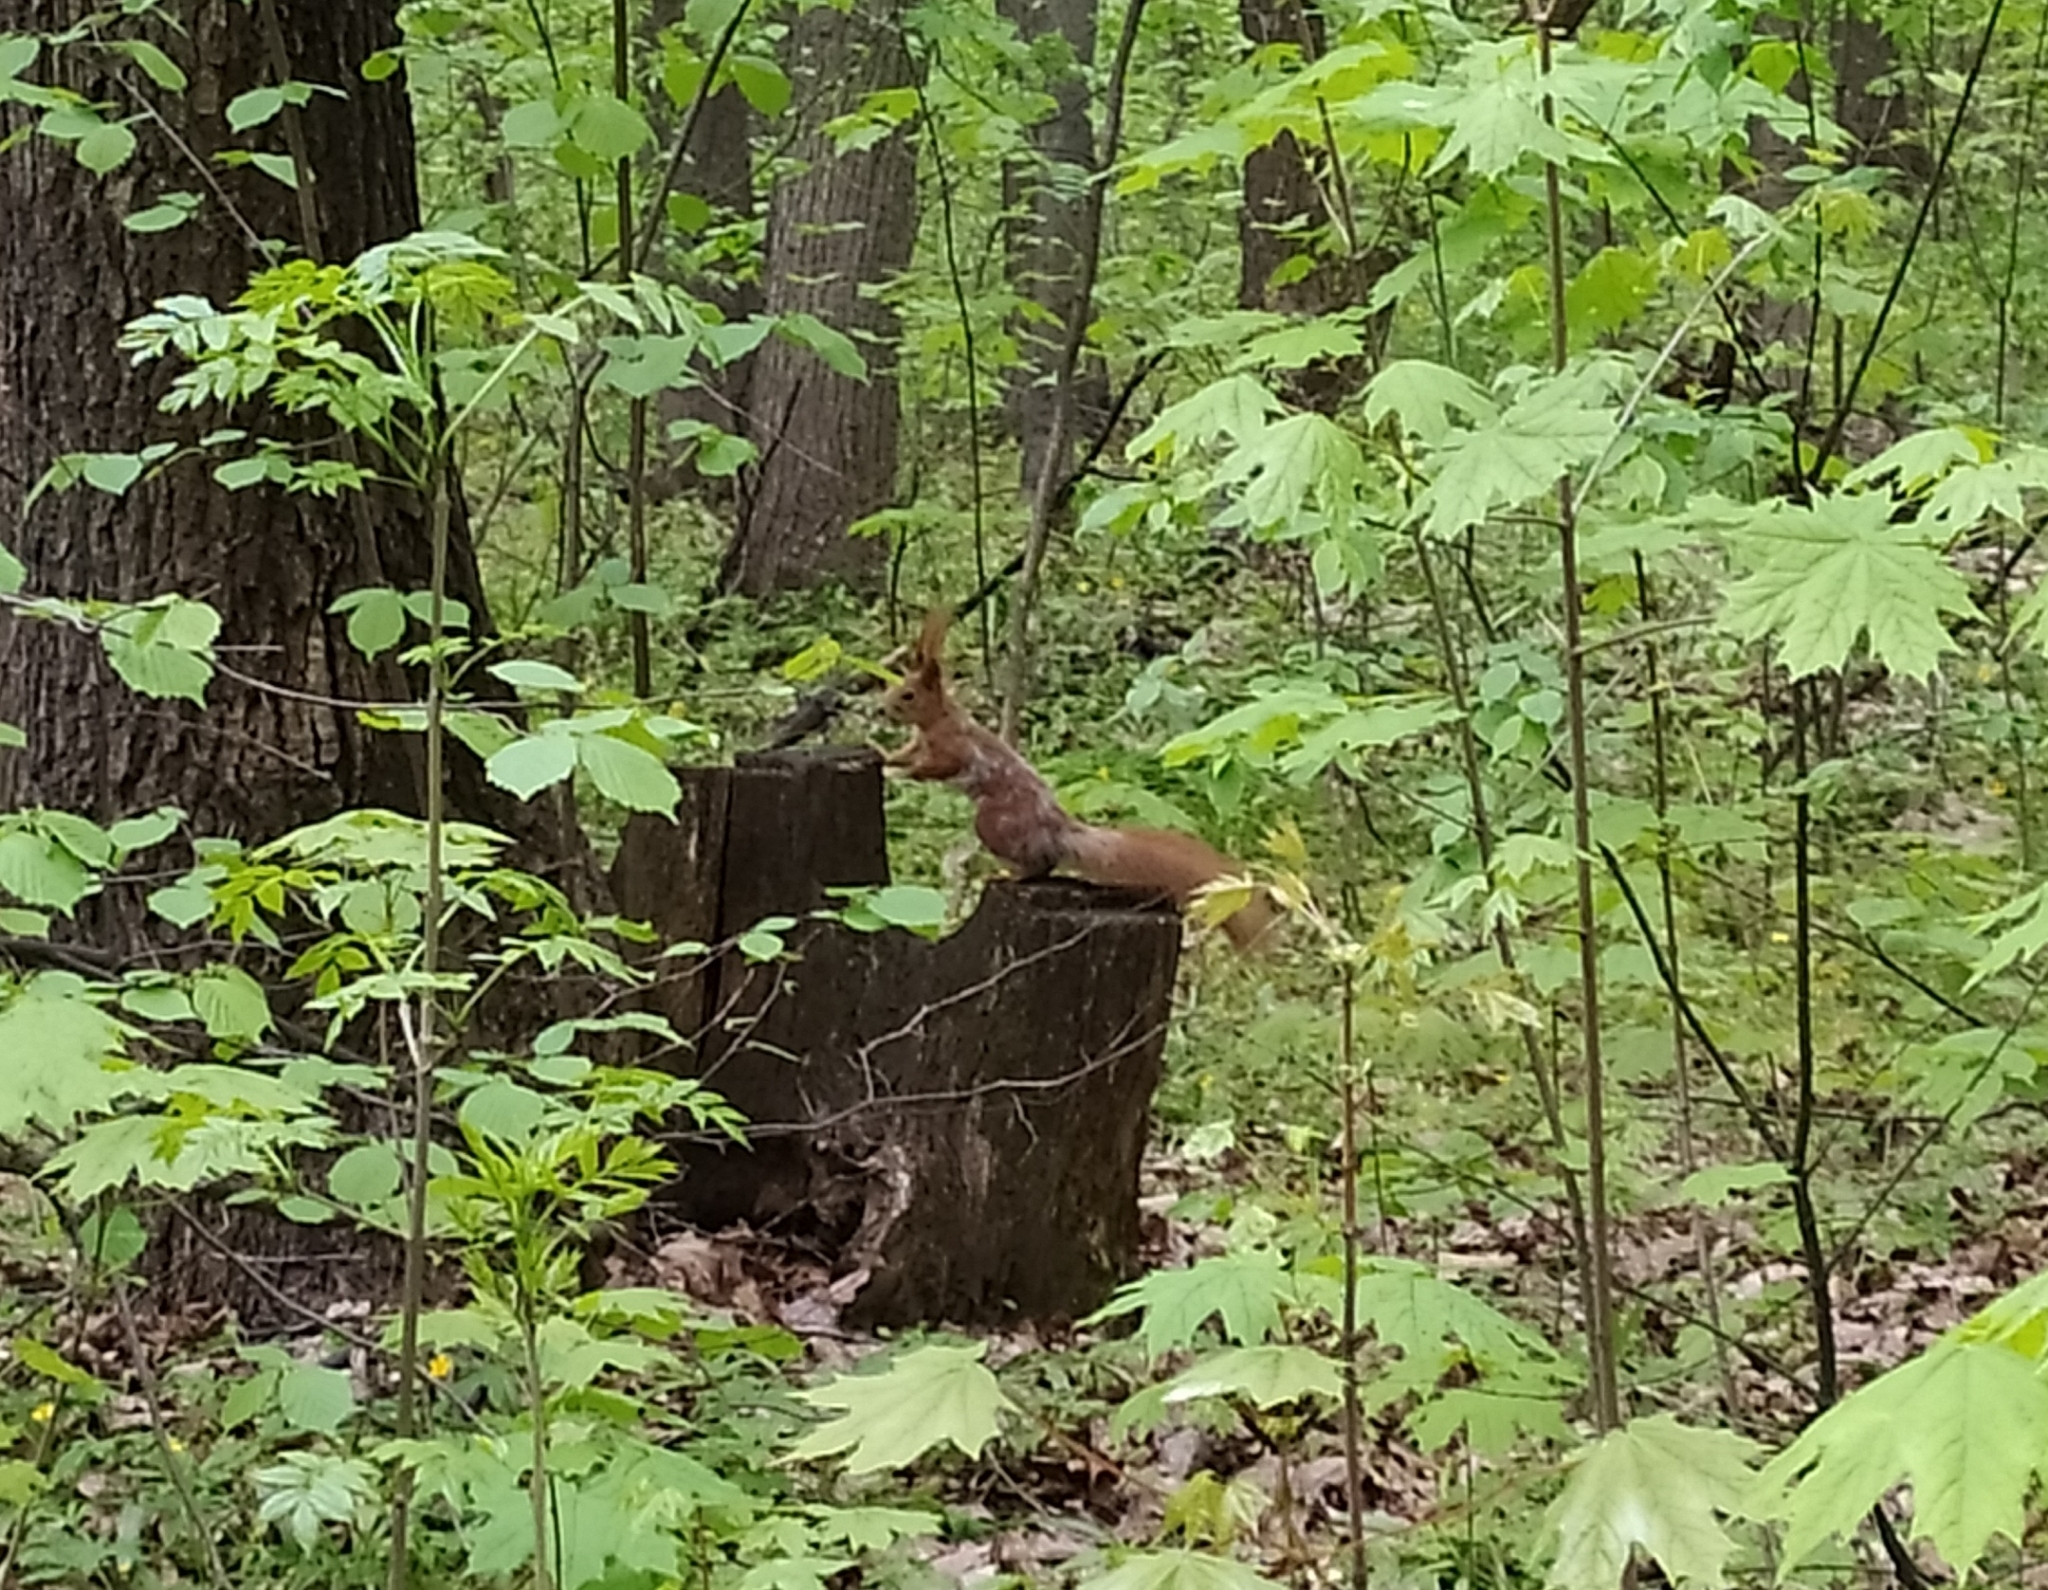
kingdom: Animalia
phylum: Chordata
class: Mammalia
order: Rodentia
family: Sciuridae
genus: Sciurus
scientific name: Sciurus vulgaris
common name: Eurasian red squirrel
